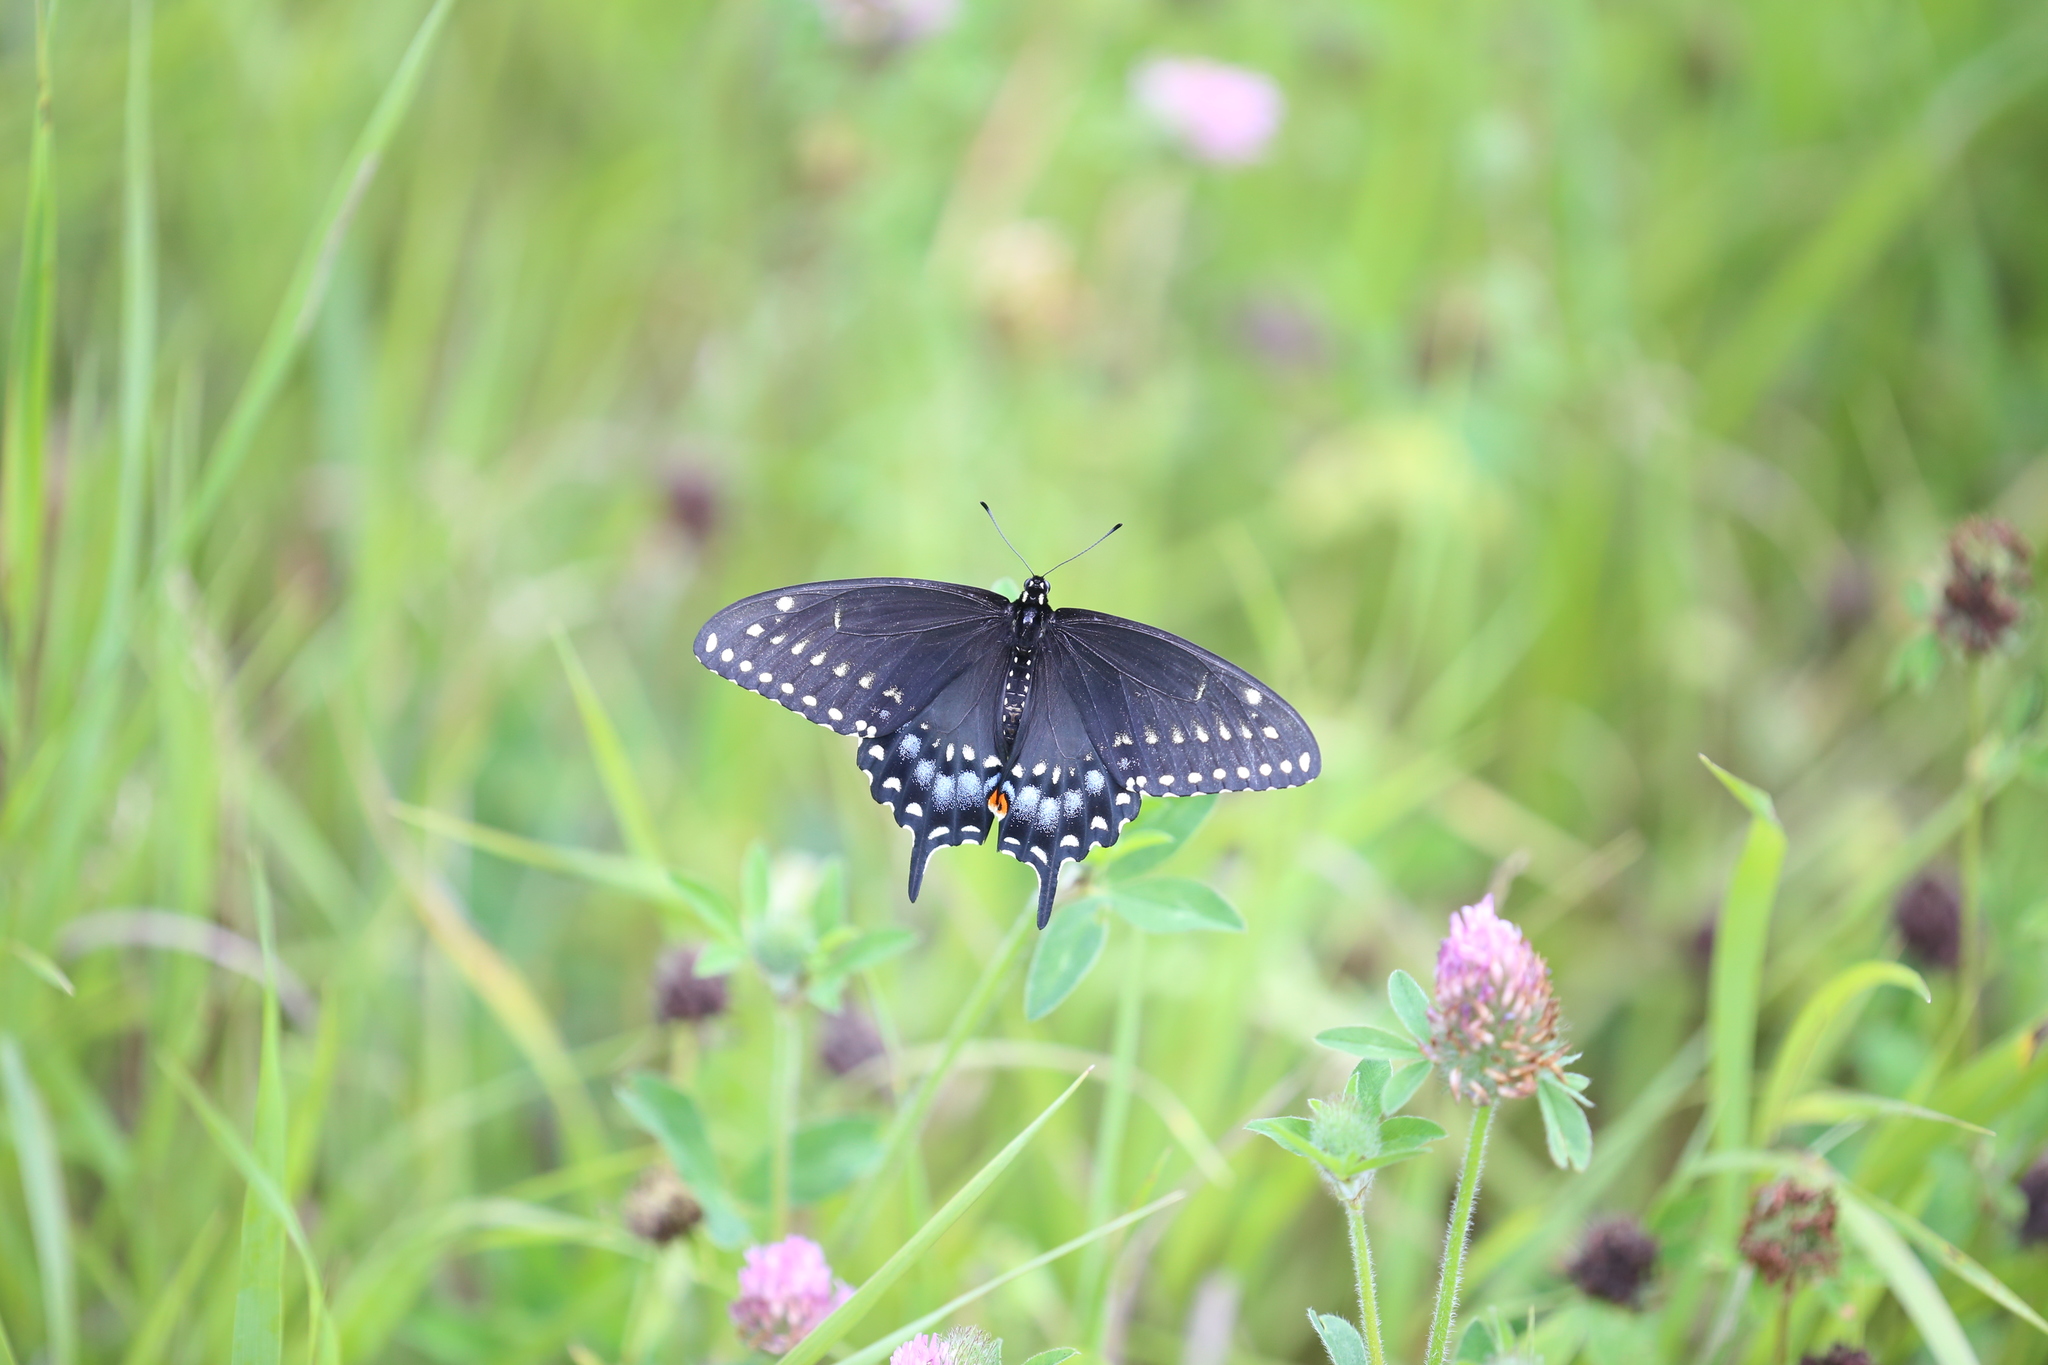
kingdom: Animalia
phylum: Arthropoda
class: Insecta
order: Lepidoptera
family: Papilionidae
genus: Papilio
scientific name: Papilio polyxenes
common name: Black swallowtail
